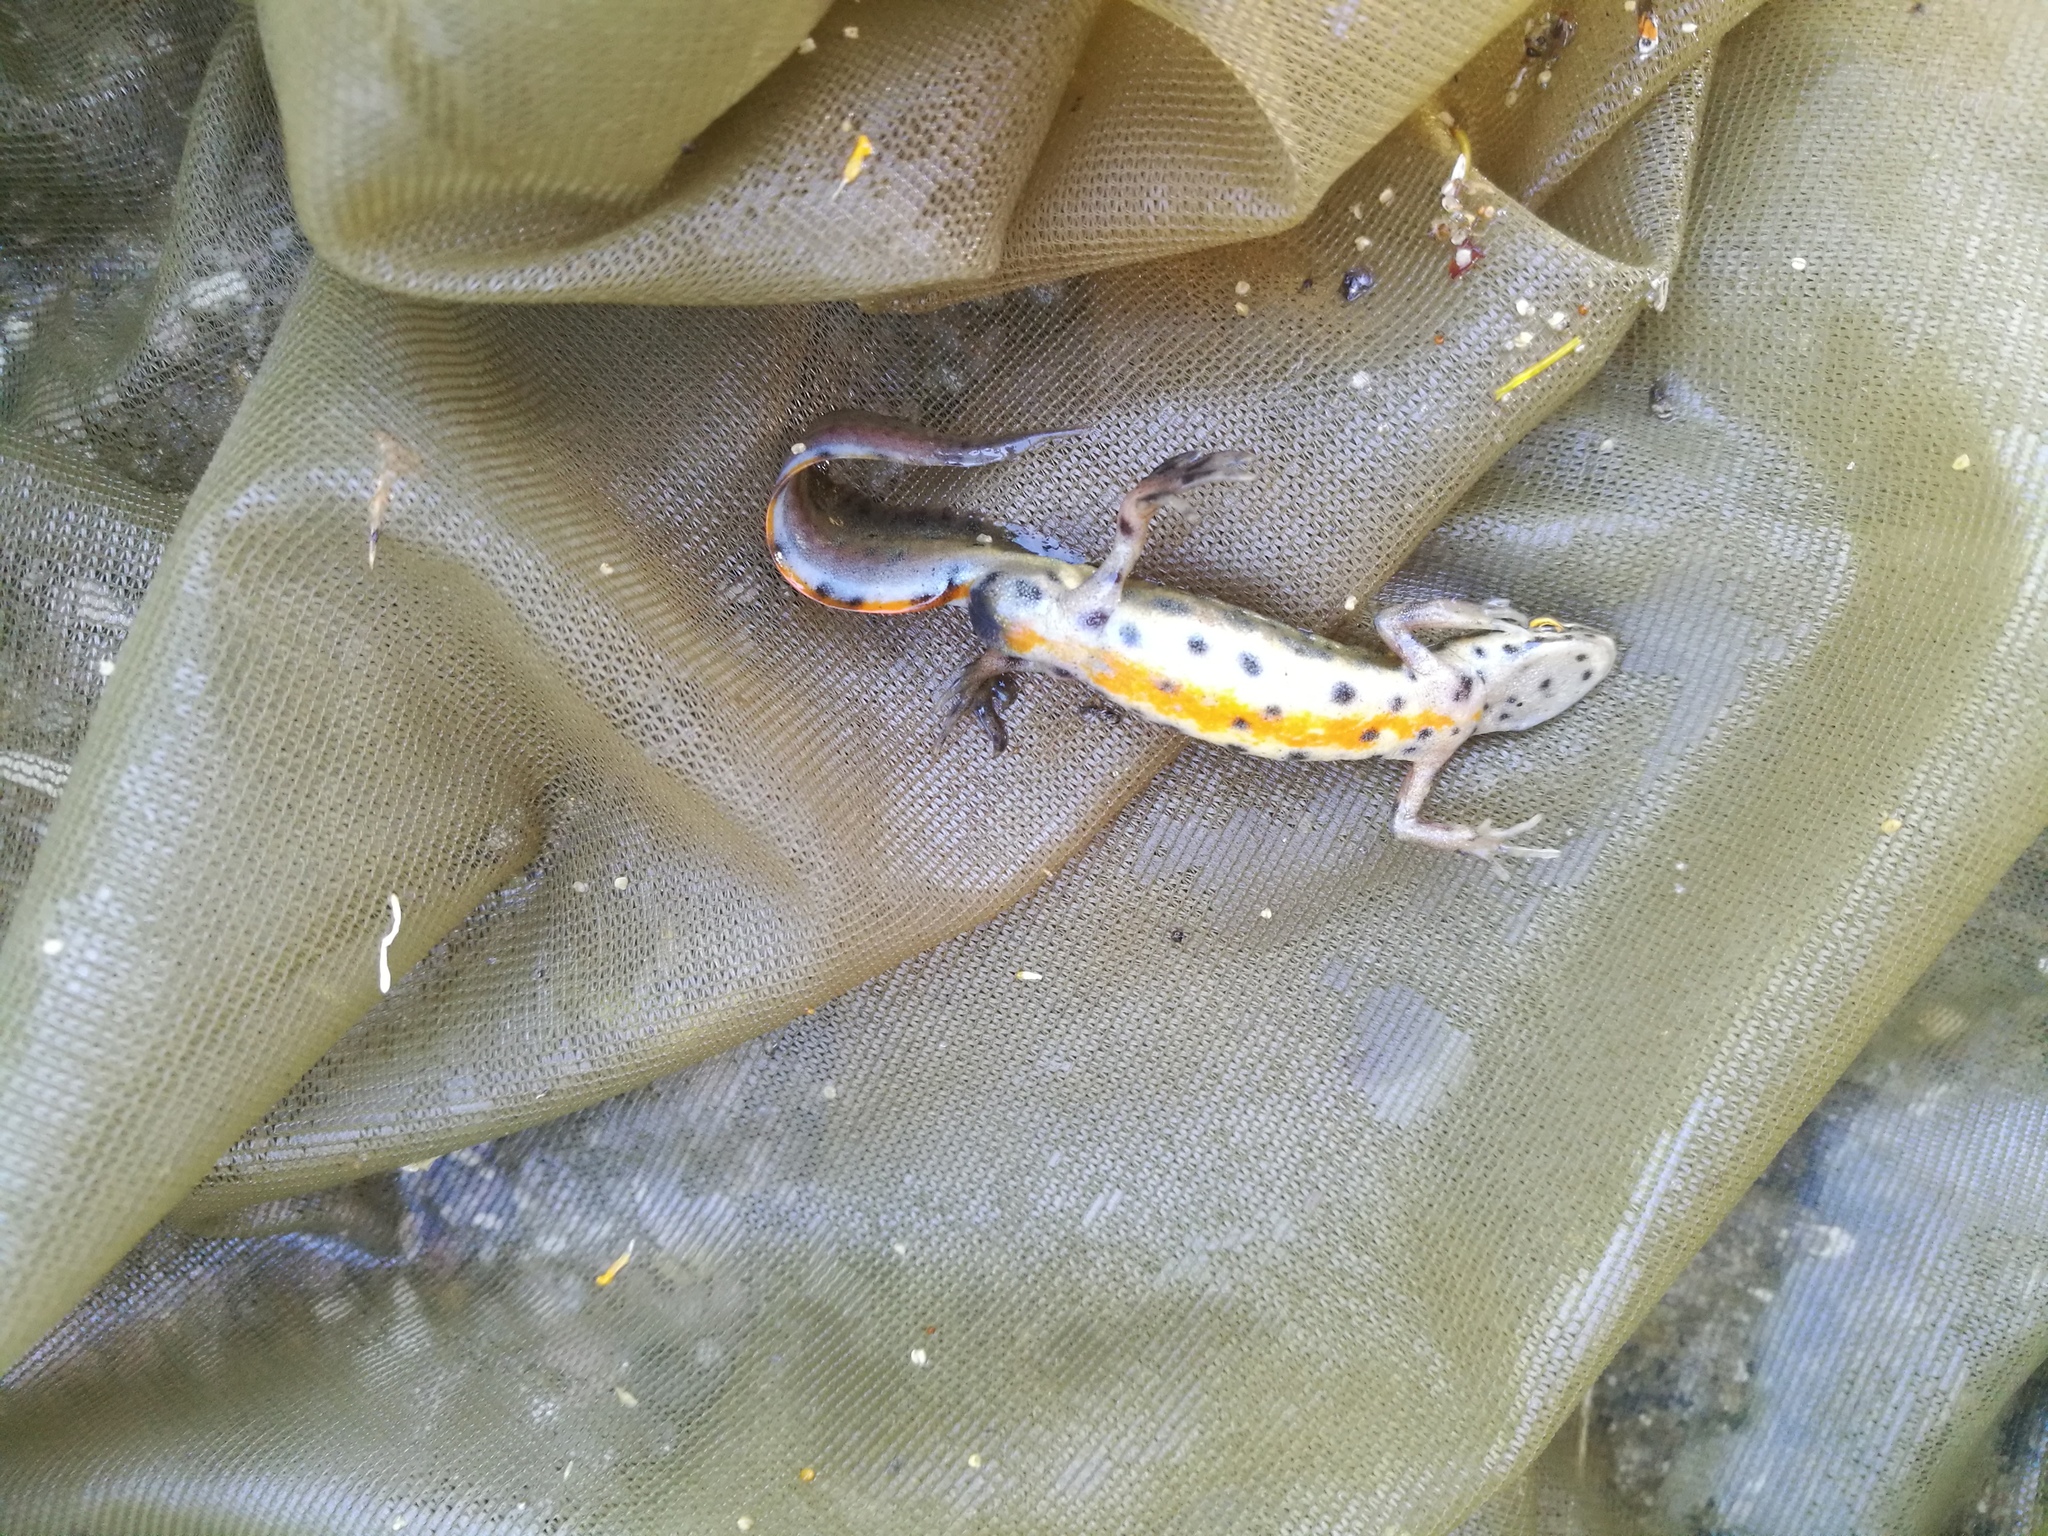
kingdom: Animalia
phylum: Chordata
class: Amphibia
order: Caudata
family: Salamandridae
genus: Lissotriton
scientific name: Lissotriton vulgaris
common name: Smooth newt
